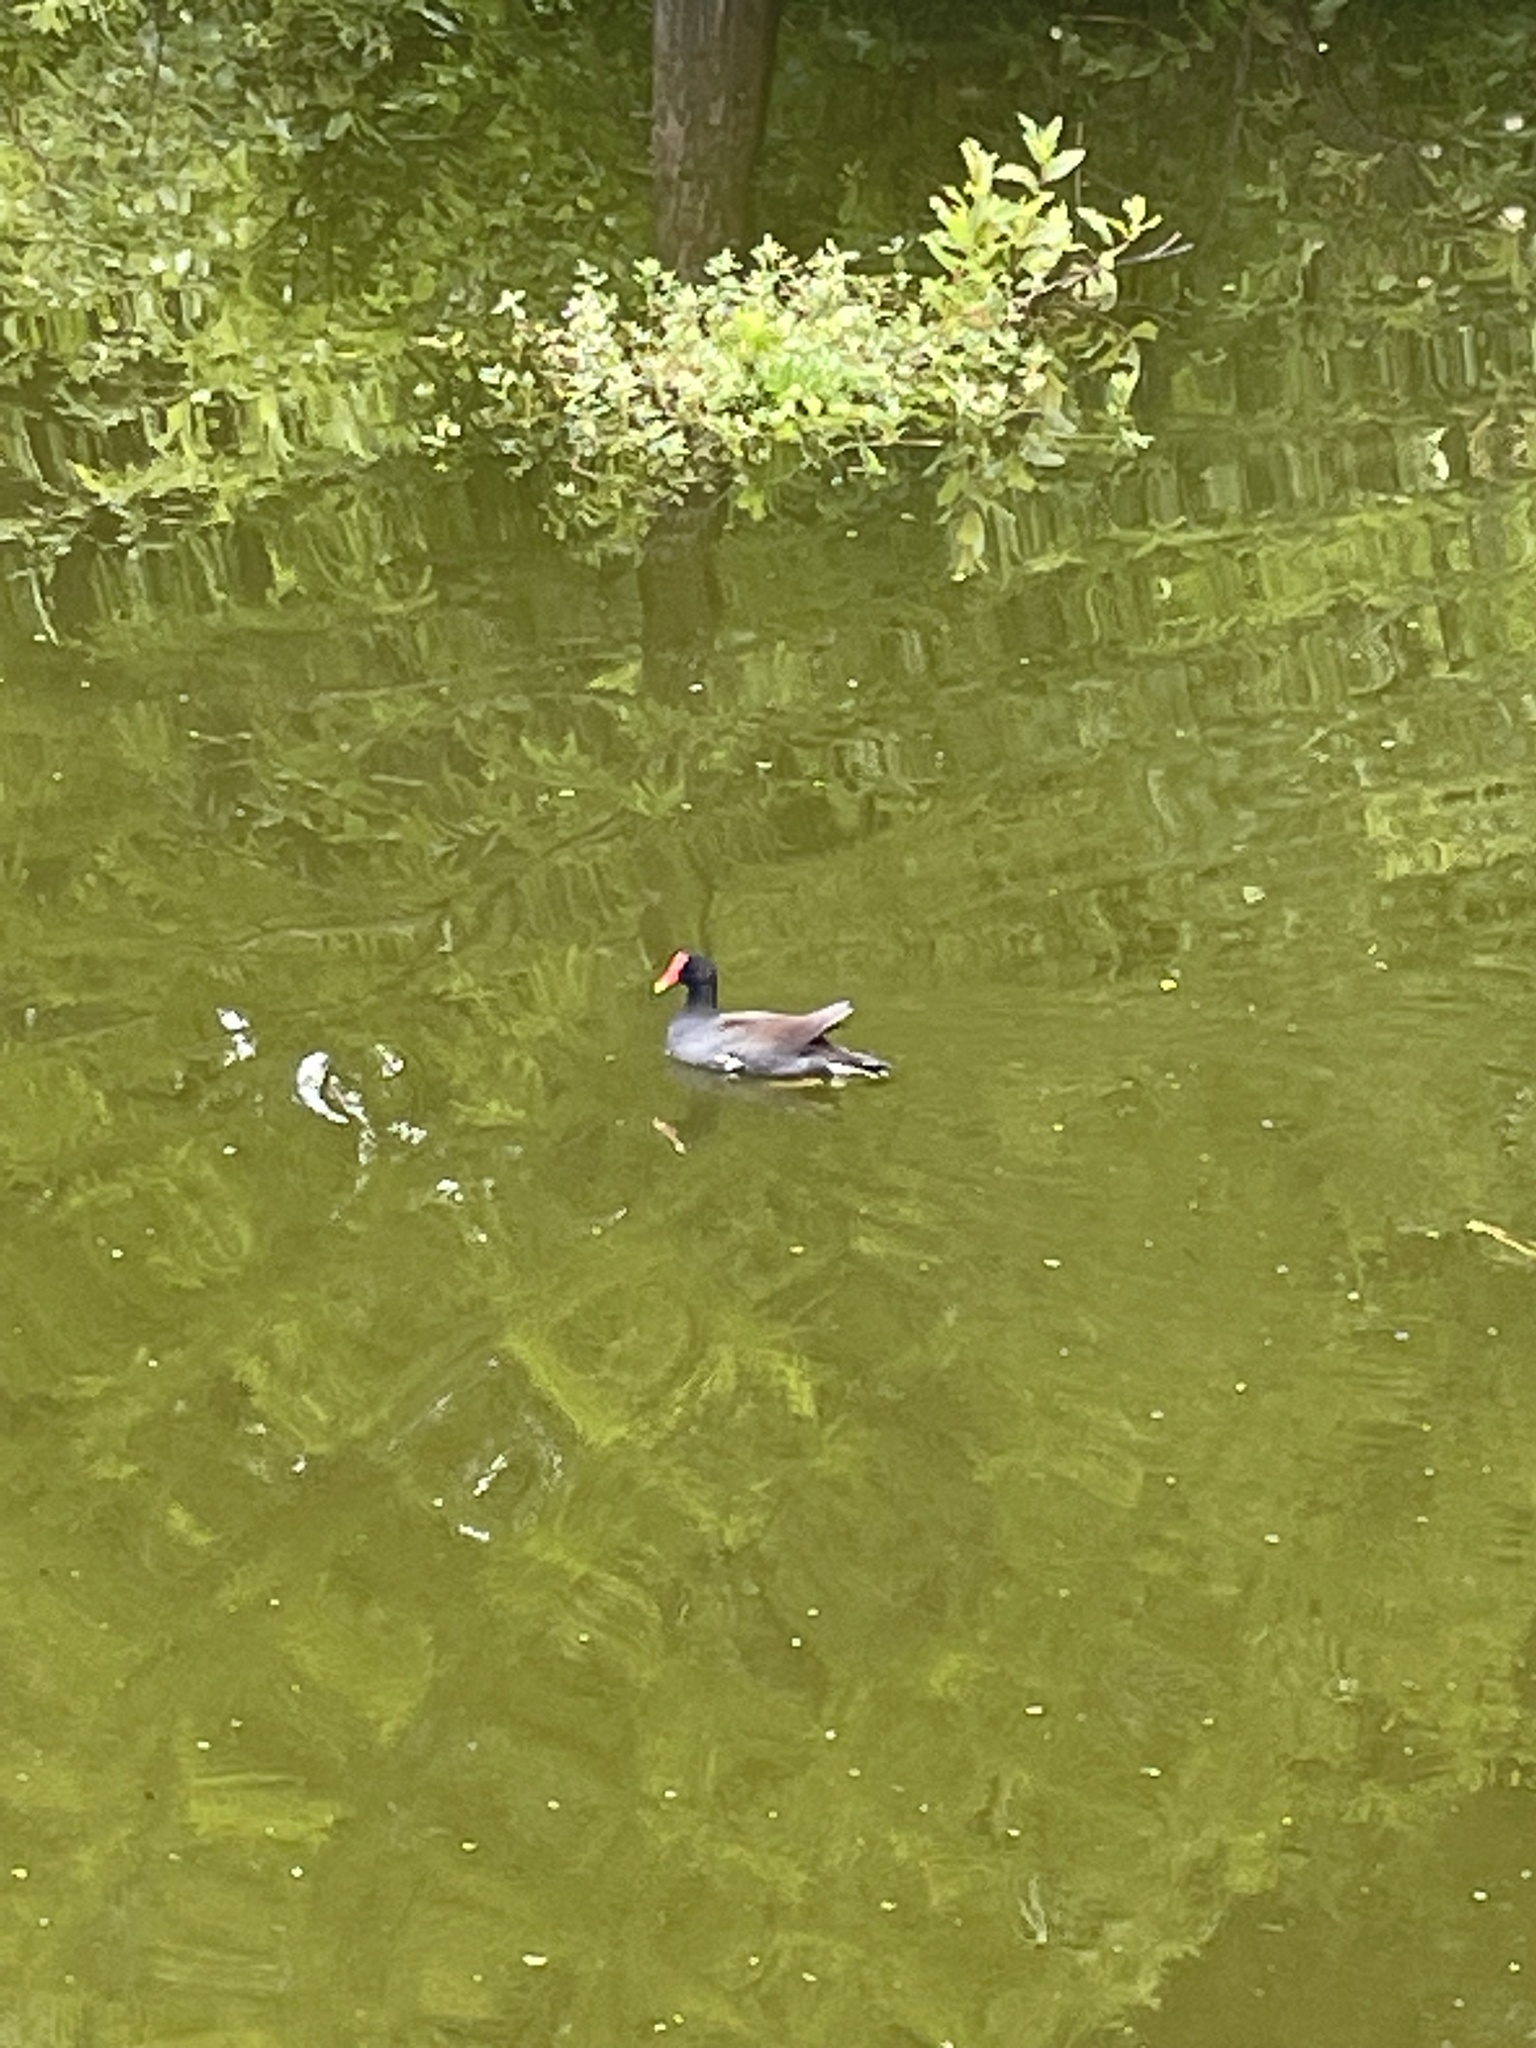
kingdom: Animalia
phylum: Chordata
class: Aves
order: Gruiformes
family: Rallidae
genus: Gallinula
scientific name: Gallinula chloropus
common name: Common moorhen
